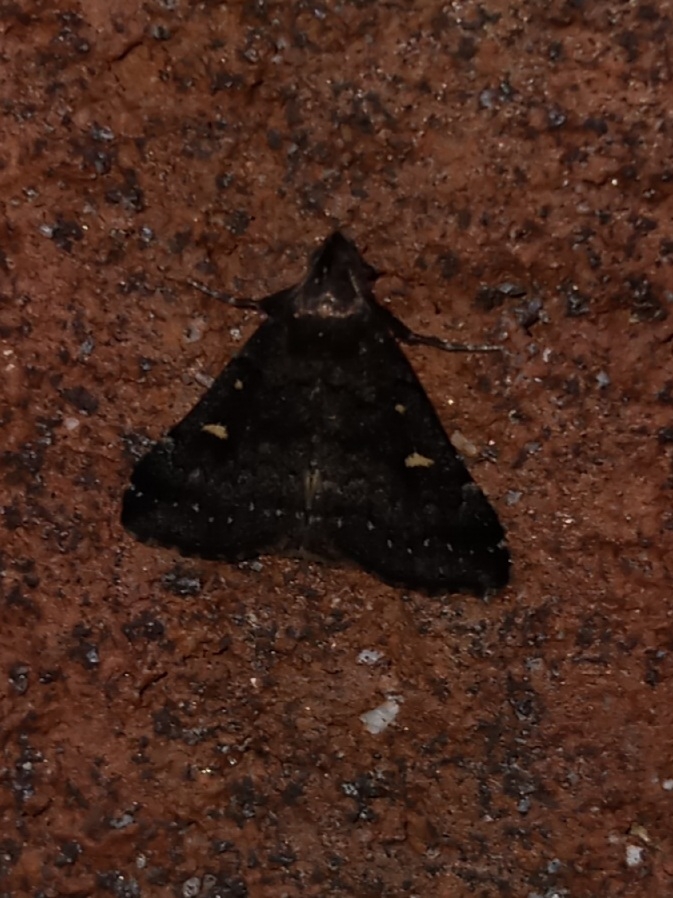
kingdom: Animalia
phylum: Arthropoda
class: Insecta
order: Lepidoptera
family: Erebidae
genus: Tetanolita
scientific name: Tetanolita mynesalis
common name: Smoky tetanolita moth
